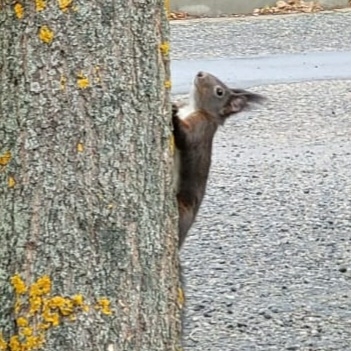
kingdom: Animalia
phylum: Chordata
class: Mammalia
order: Rodentia
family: Sciuridae
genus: Sciurus
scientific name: Sciurus vulgaris
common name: Eurasian red squirrel
